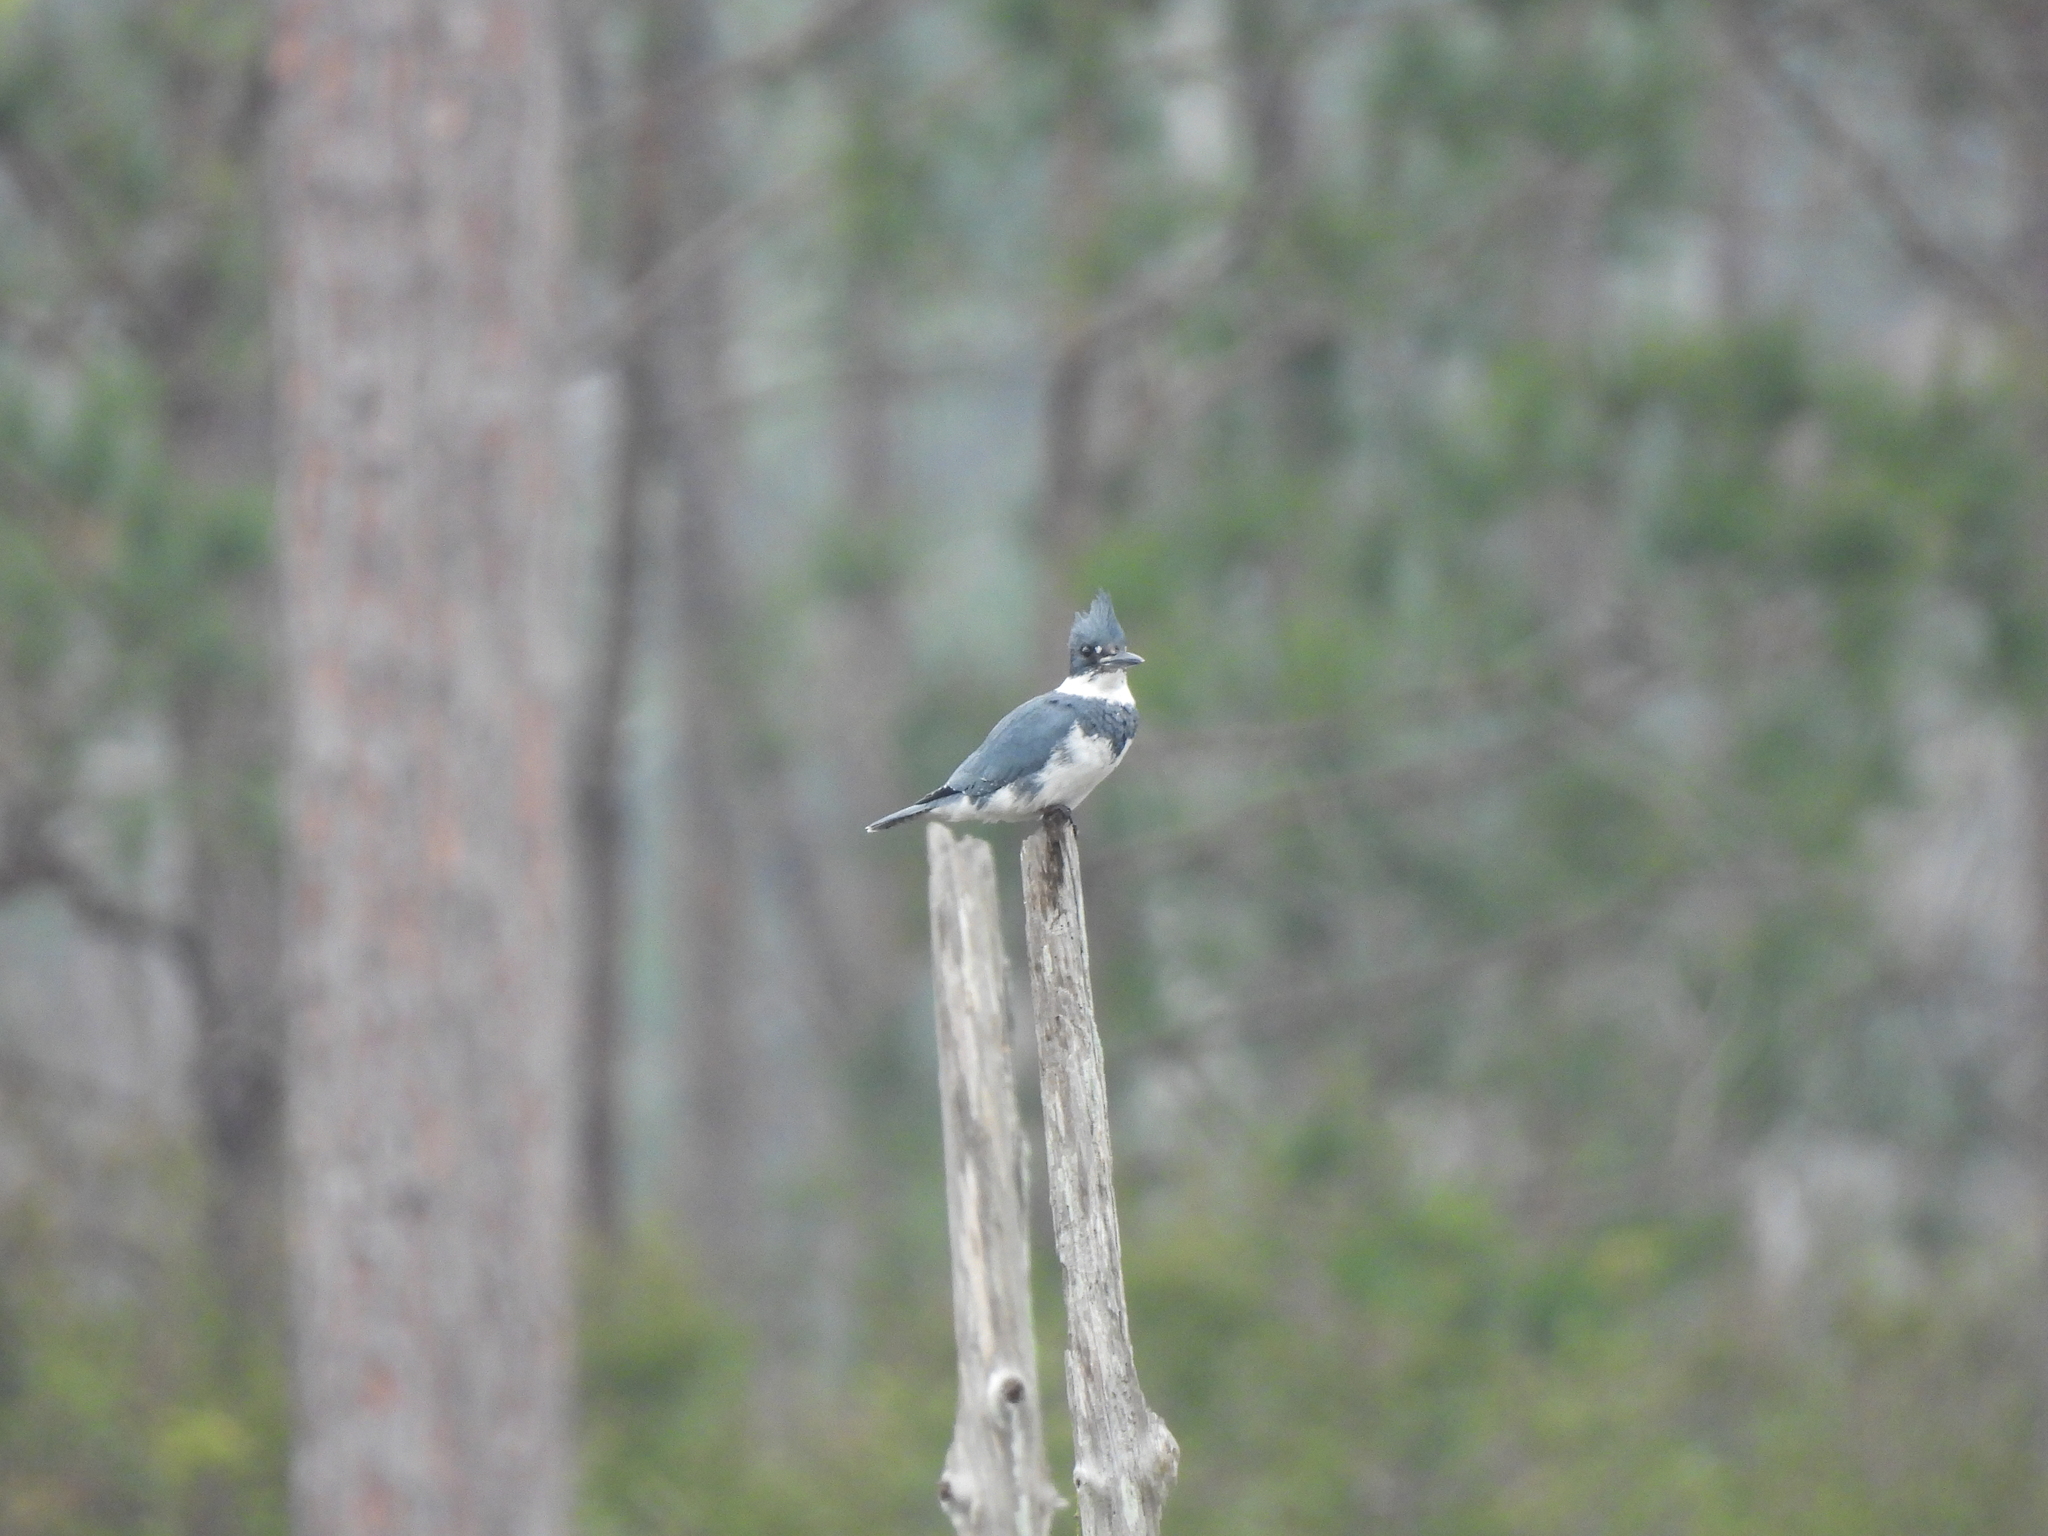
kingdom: Animalia
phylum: Chordata
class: Aves
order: Coraciiformes
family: Alcedinidae
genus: Megaceryle
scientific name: Megaceryle alcyon
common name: Belted kingfisher
